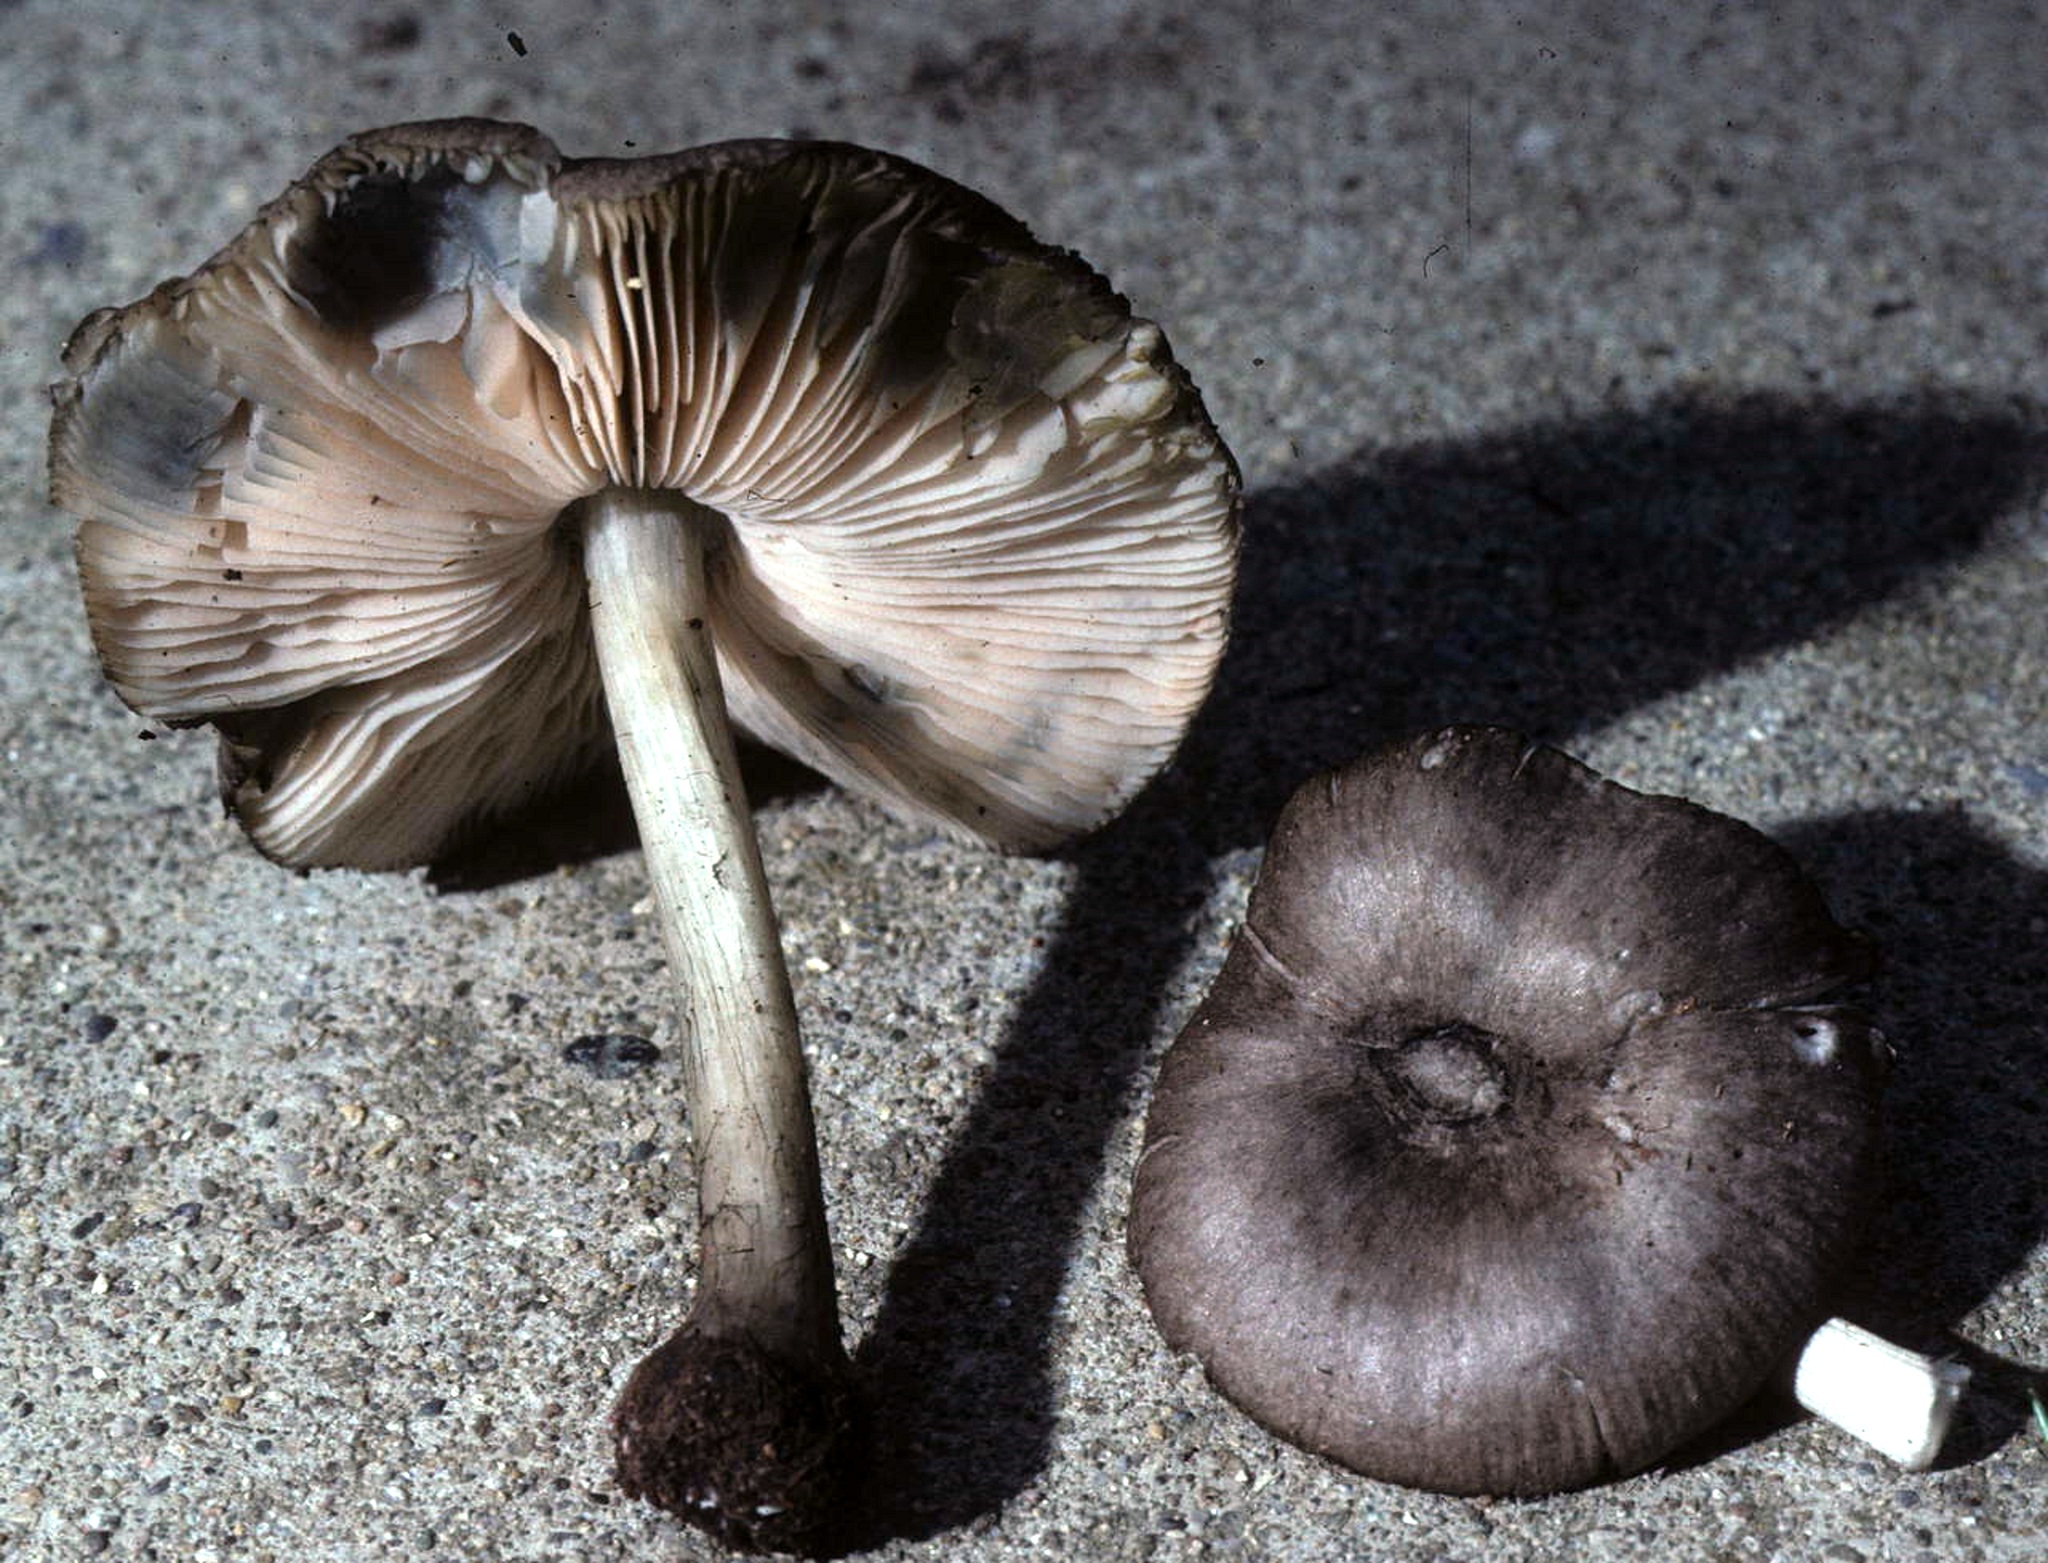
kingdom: Fungi
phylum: Basidiomycota
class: Agaricomycetes
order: Agaricales
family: Pluteaceae
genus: Pluteus
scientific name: Pluteus americanus
